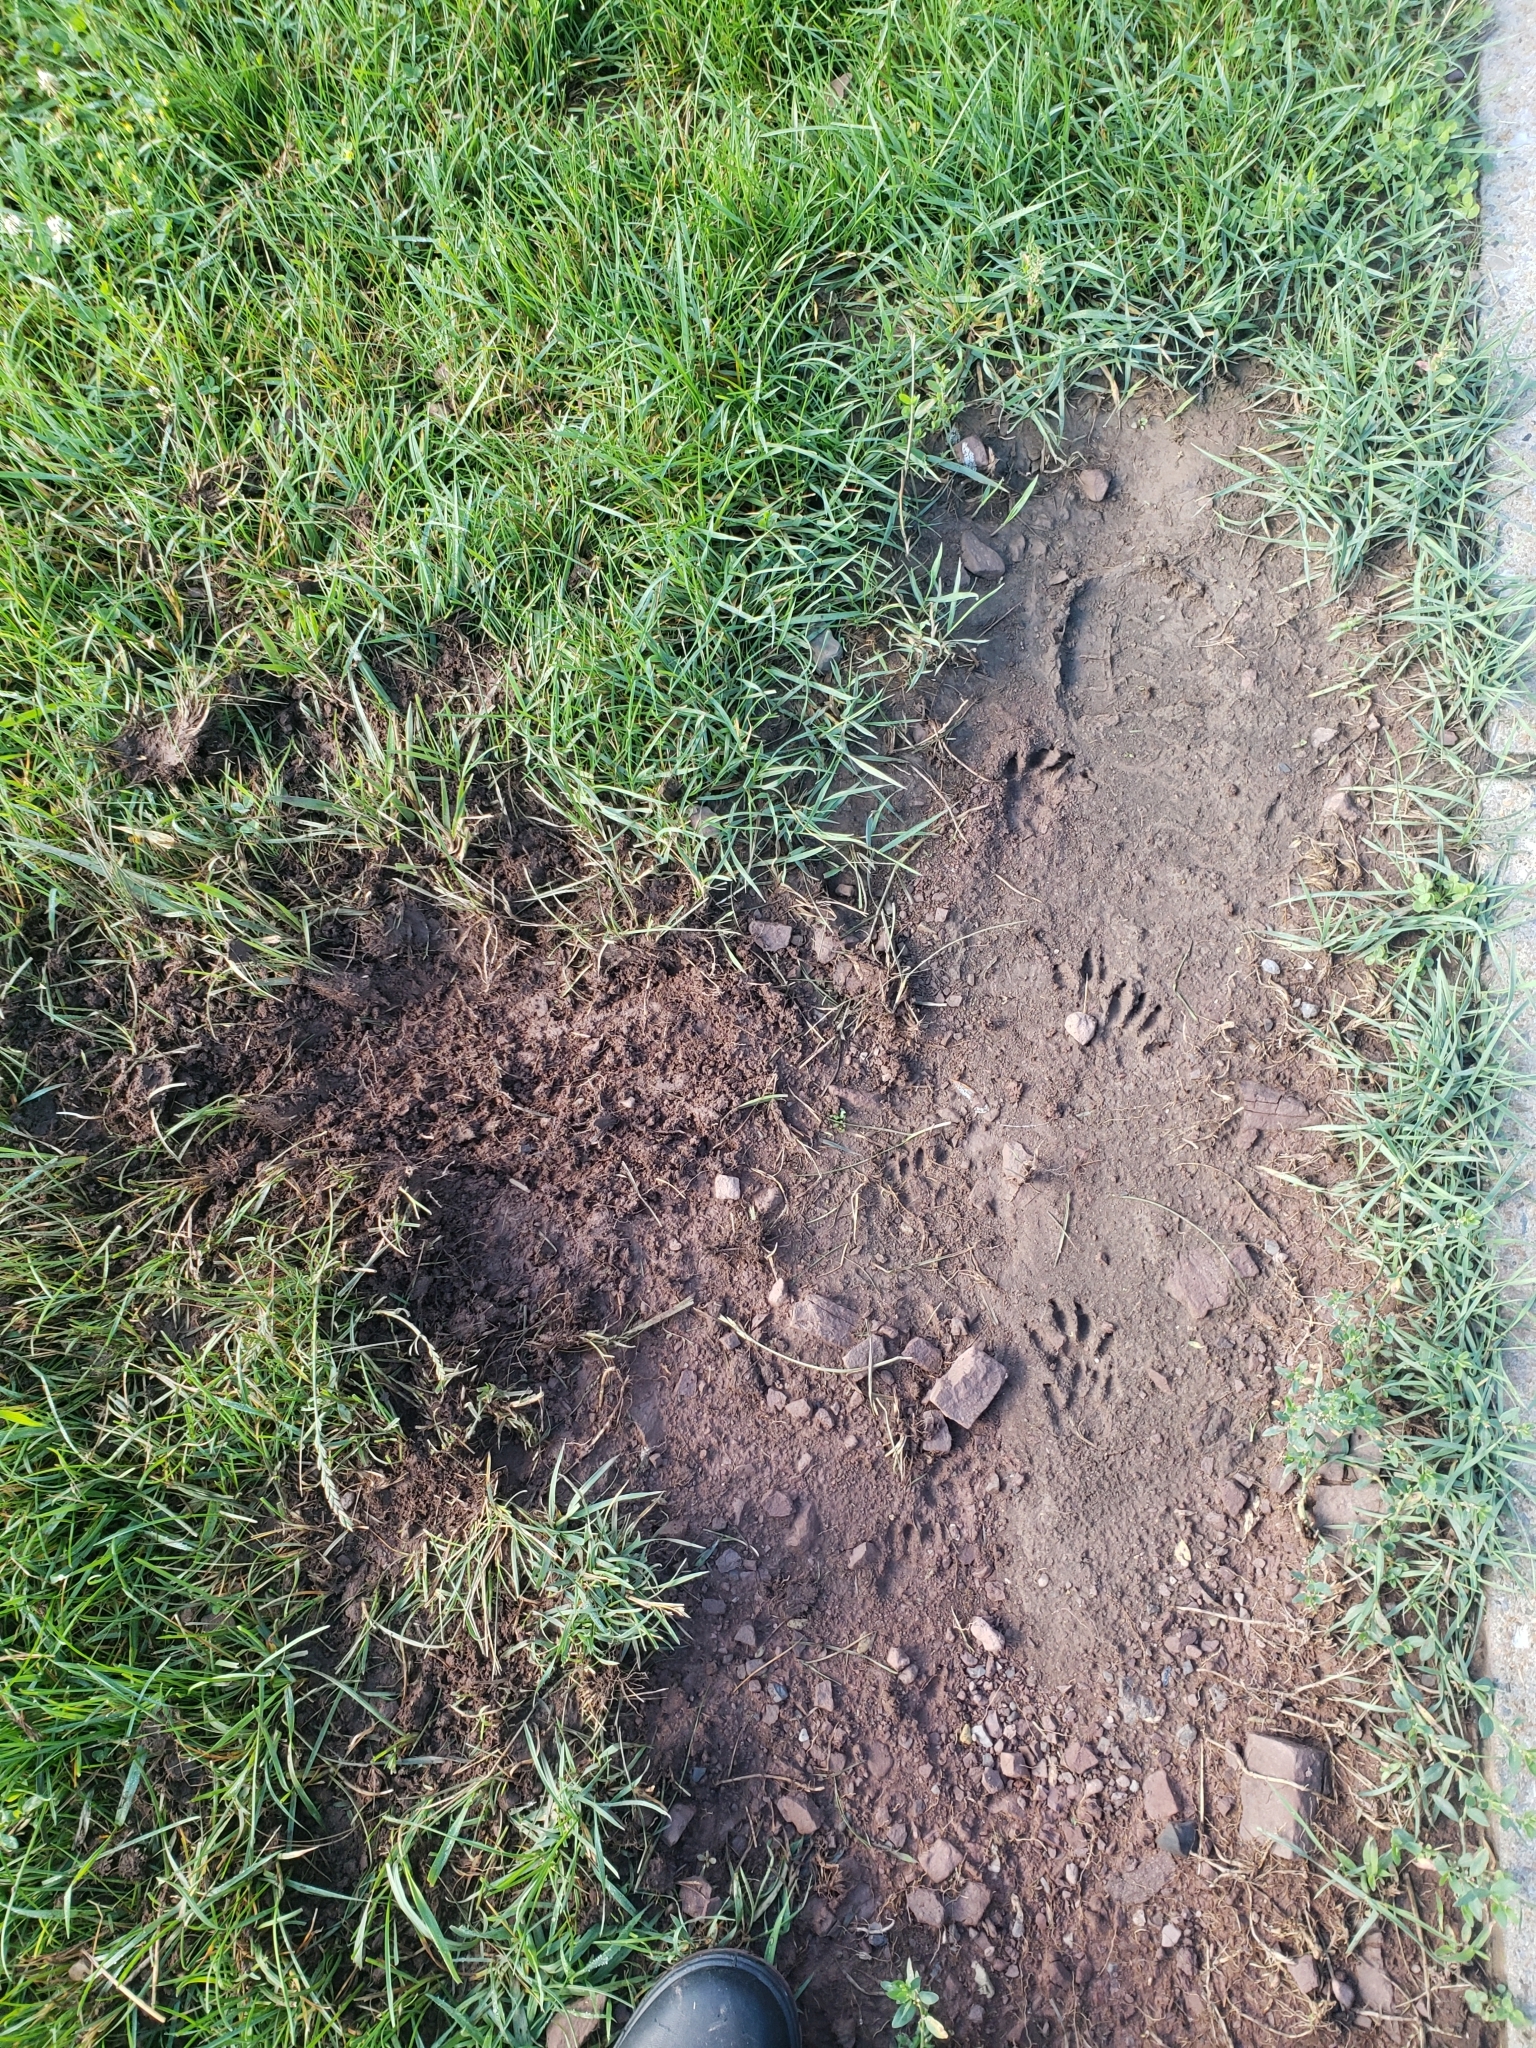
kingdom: Animalia
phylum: Chordata
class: Mammalia
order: Carnivora
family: Procyonidae
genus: Procyon
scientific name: Procyon lotor
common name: Raccoon
